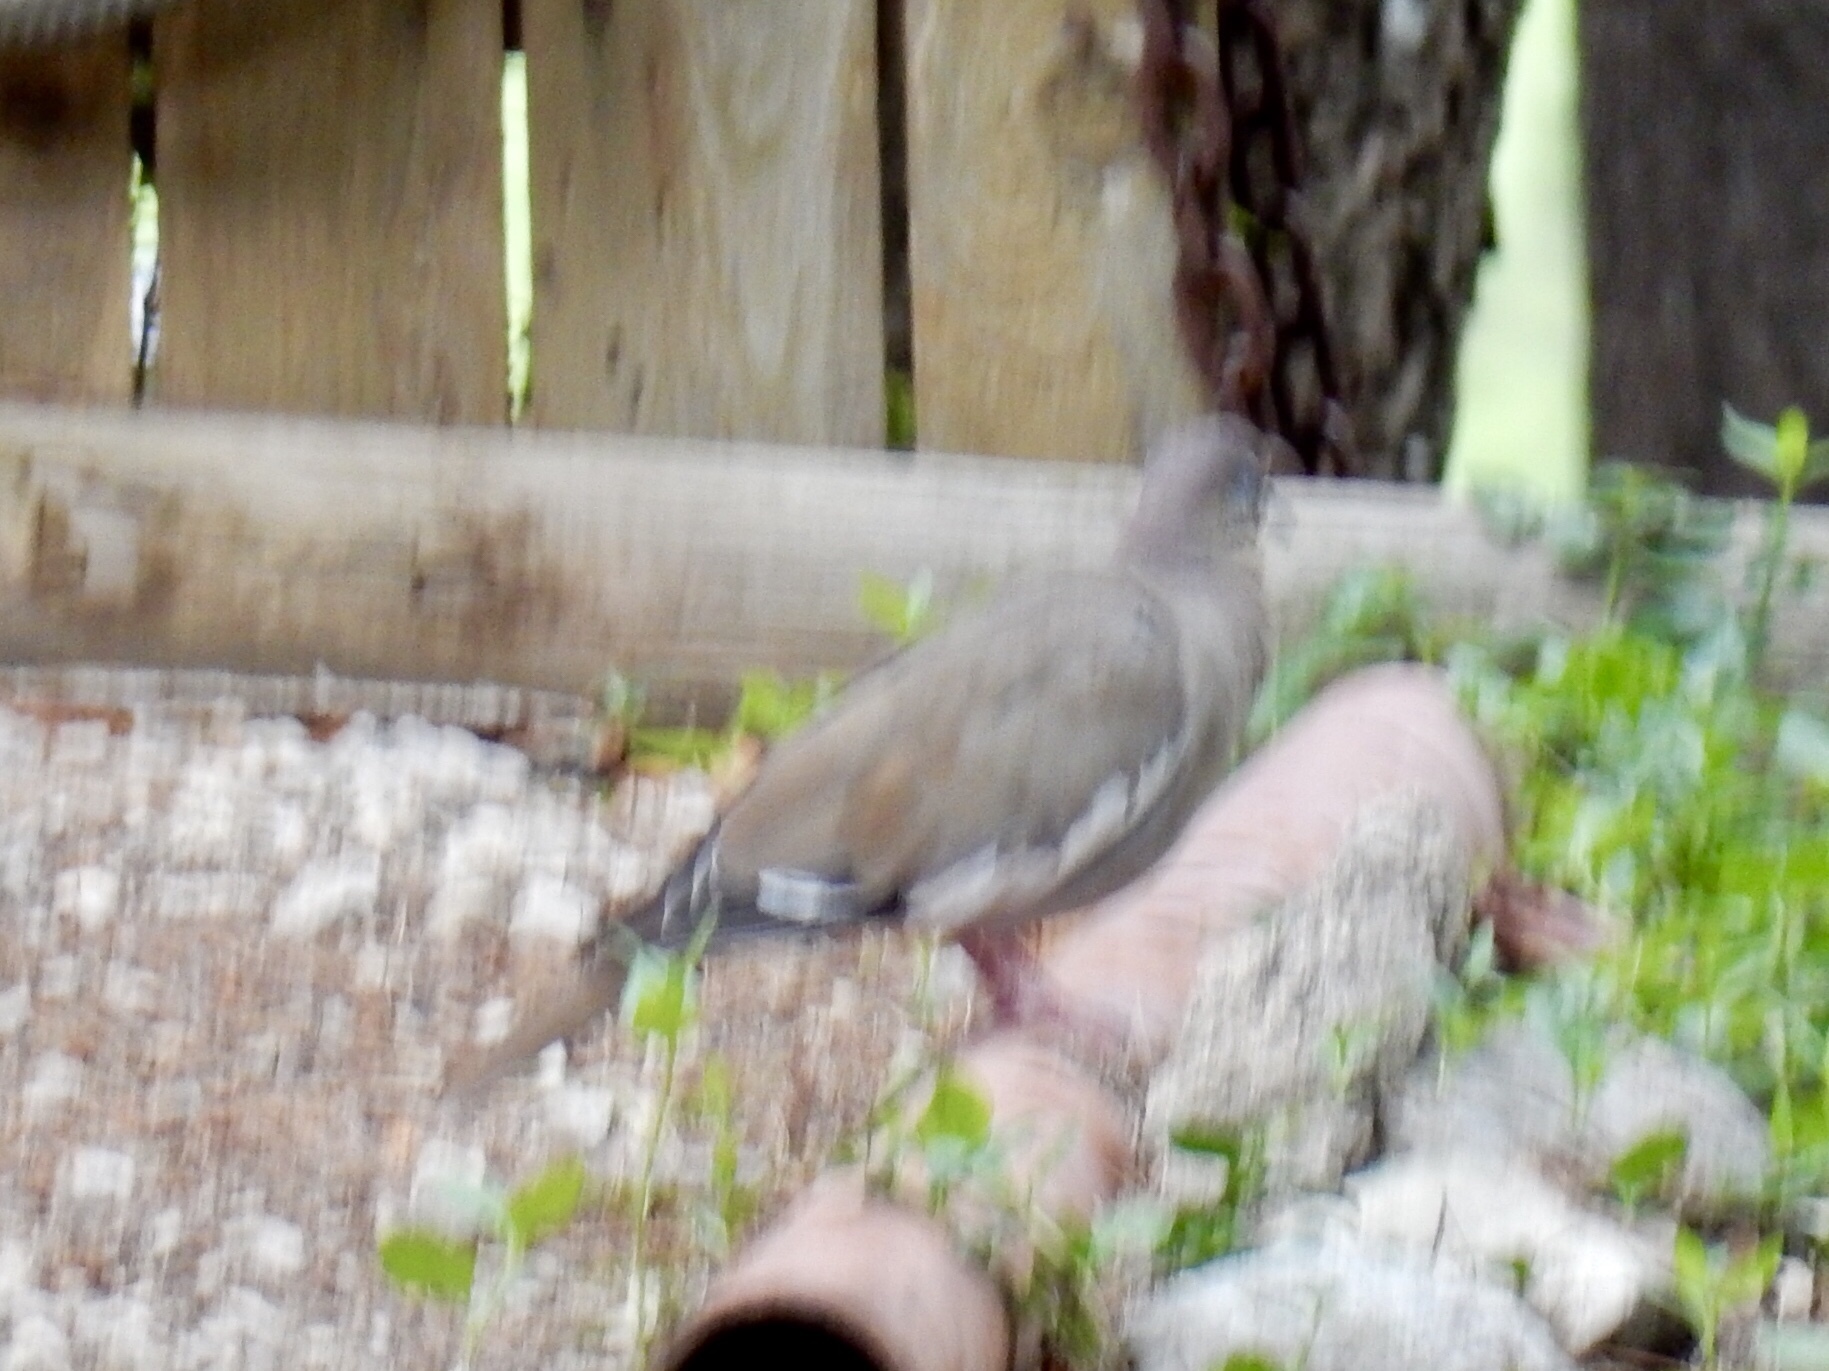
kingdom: Animalia
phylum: Chordata
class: Aves
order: Columbiformes
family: Columbidae
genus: Zenaida
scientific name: Zenaida asiatica
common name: White-winged dove
